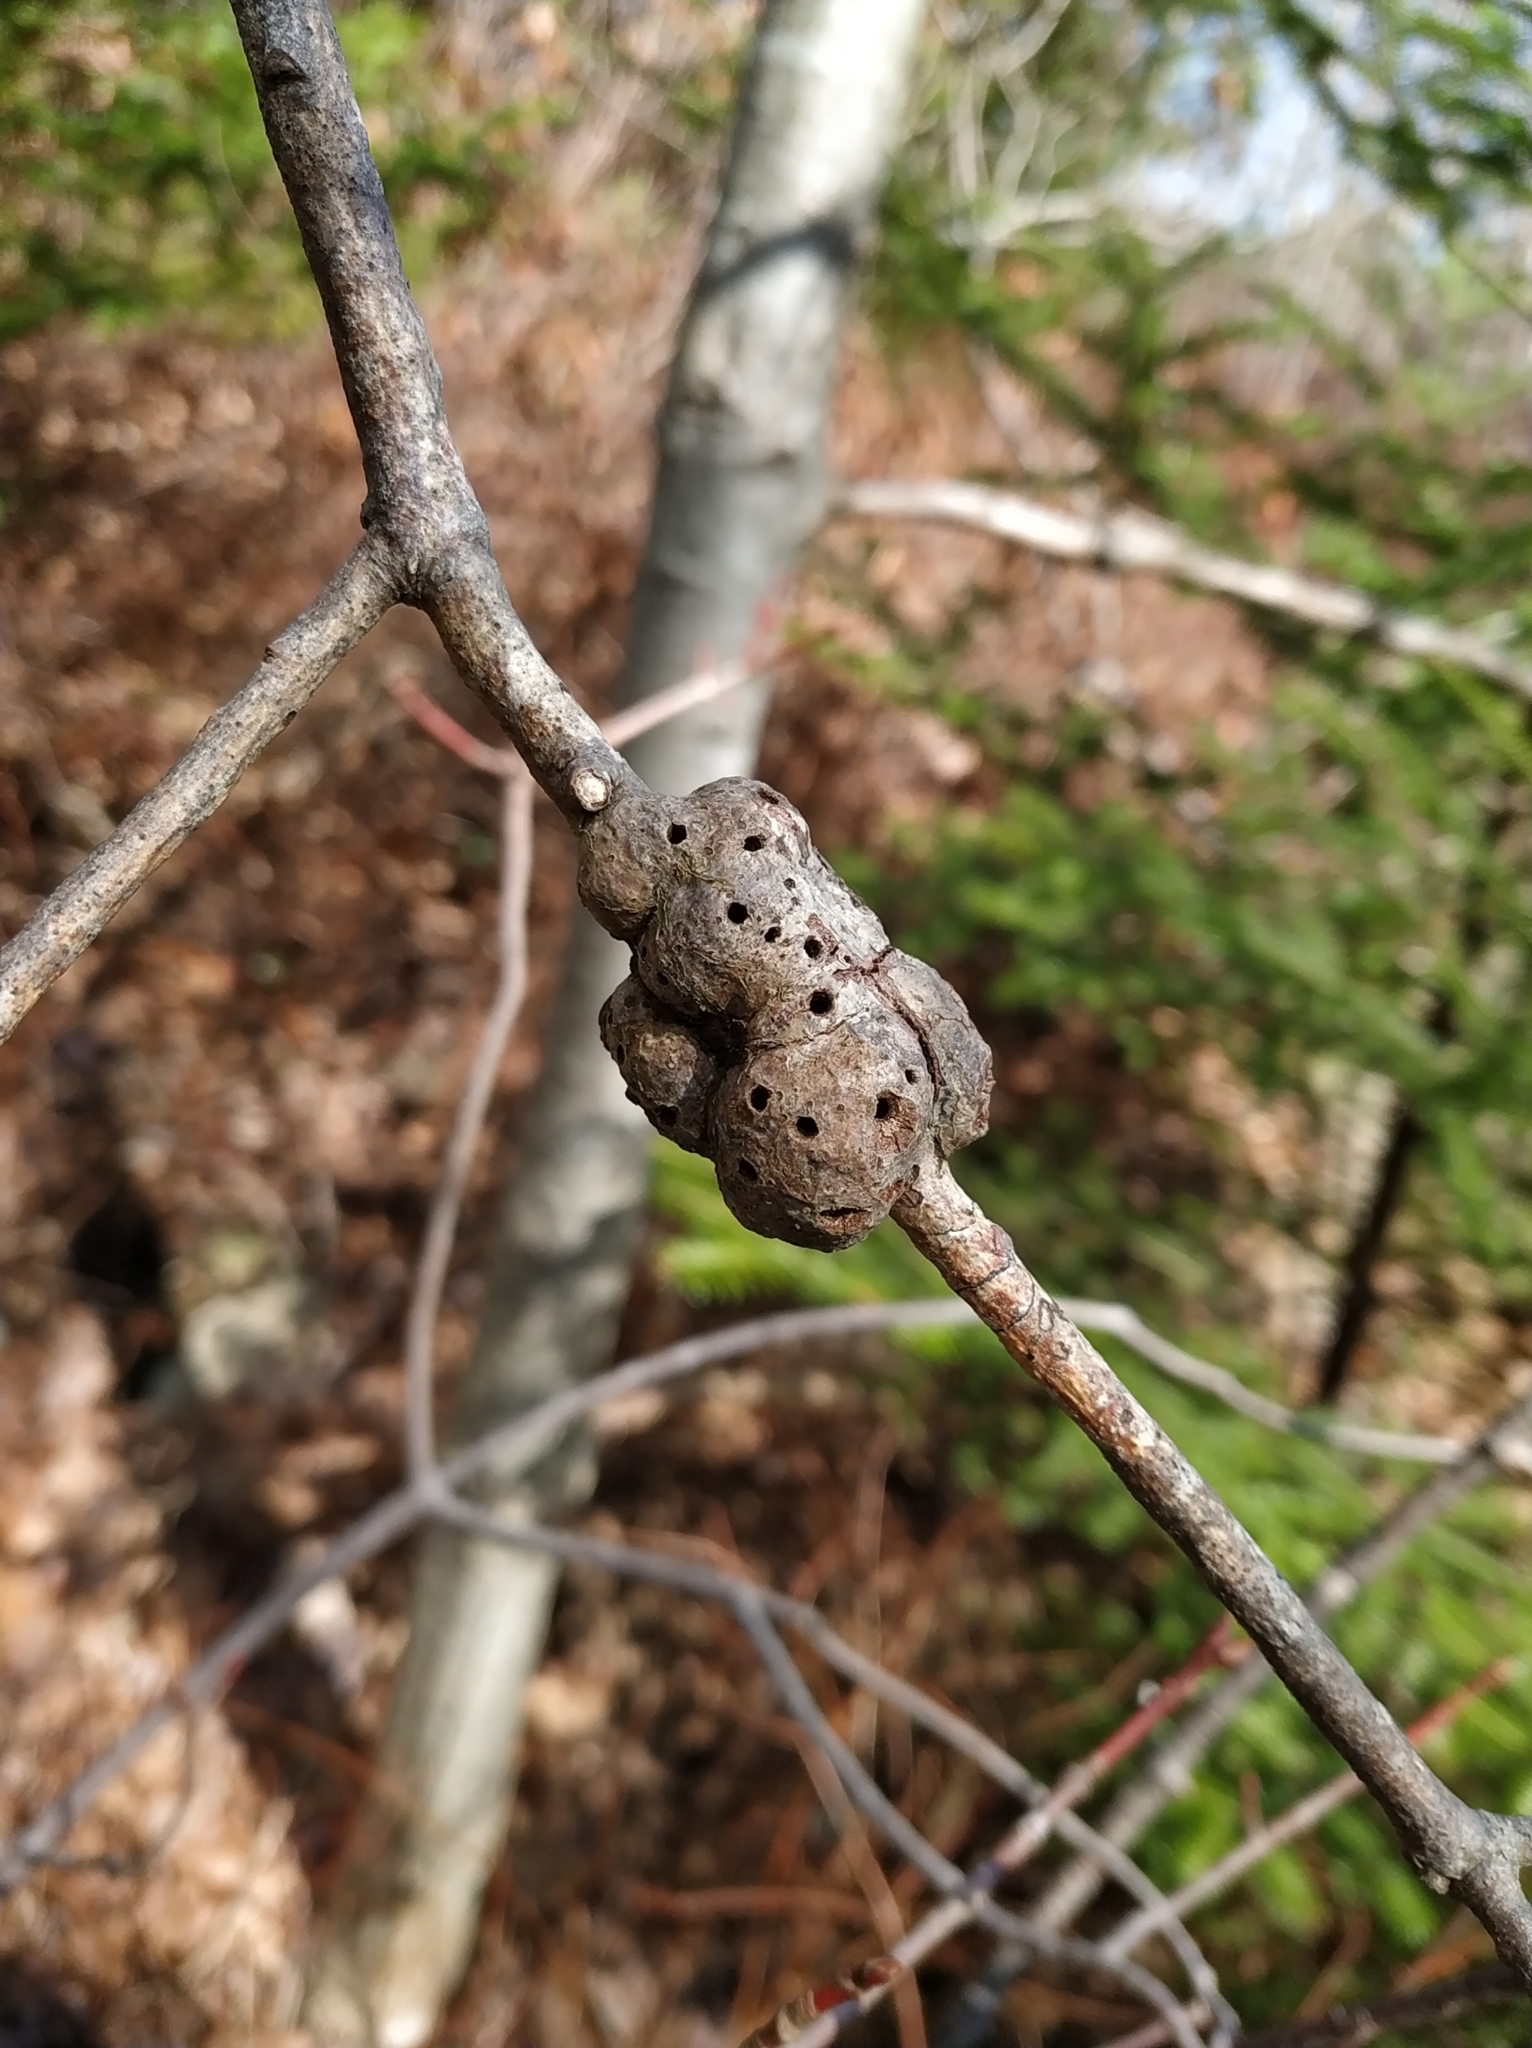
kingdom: Animalia
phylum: Arthropoda
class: Insecta
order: Hymenoptera
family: Cynipidae
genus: Callirhytis
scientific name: Callirhytis
